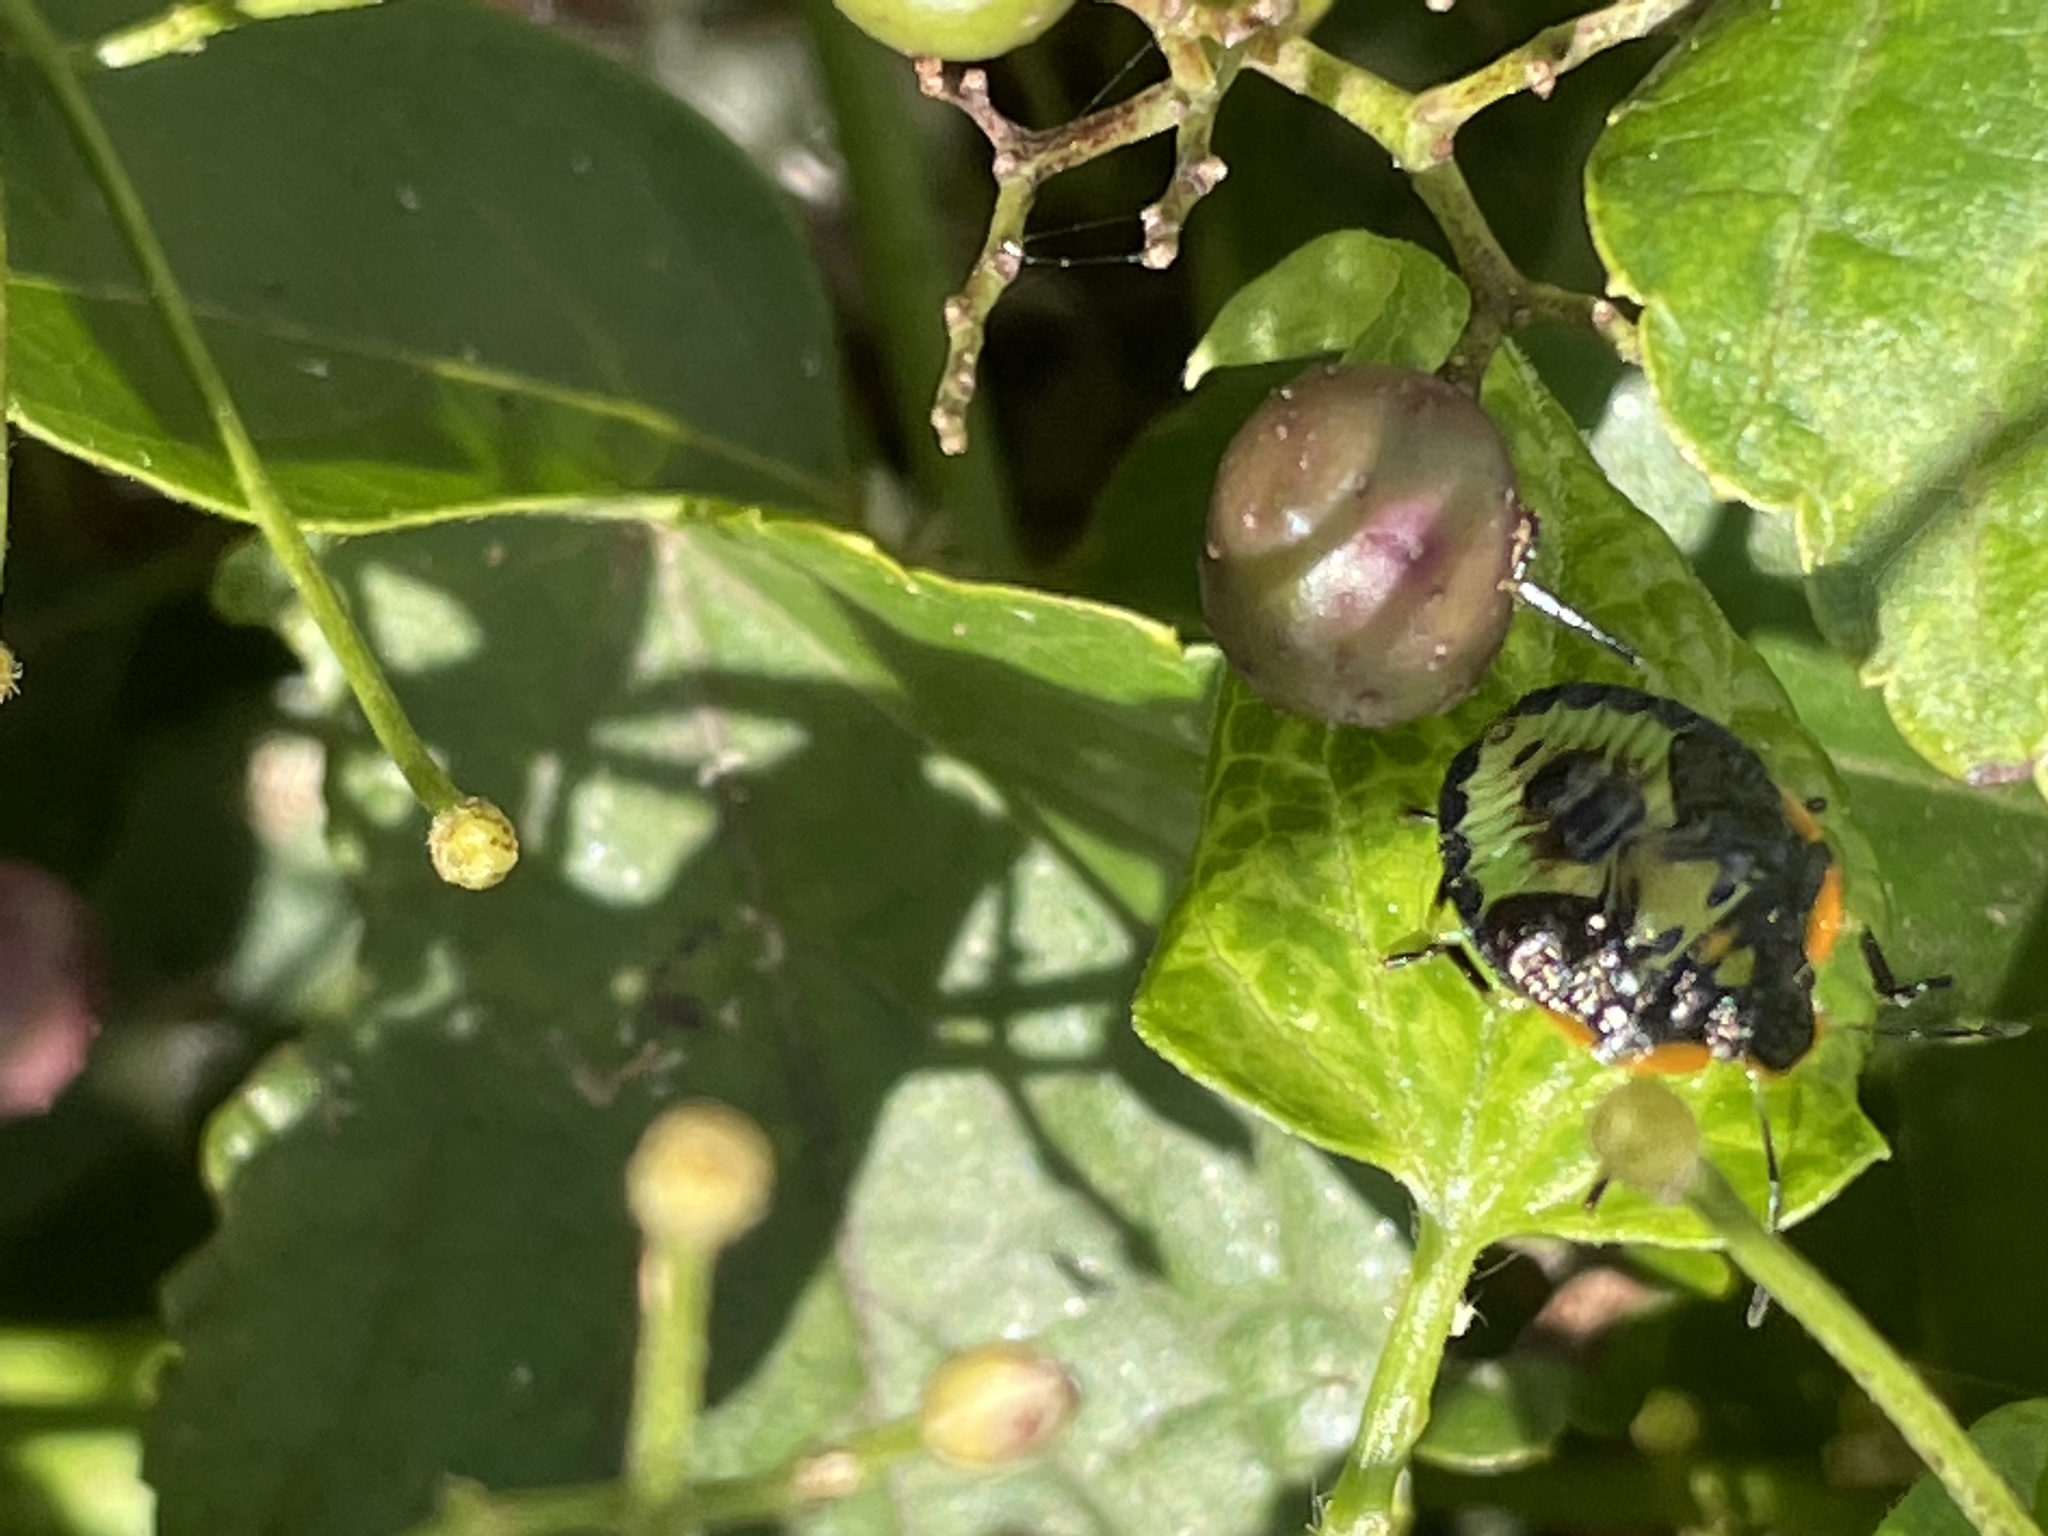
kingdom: Animalia
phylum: Arthropoda
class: Insecta
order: Hemiptera
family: Pentatomidae
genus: Chinavia
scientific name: Chinavia hilaris
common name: Green stink bug
